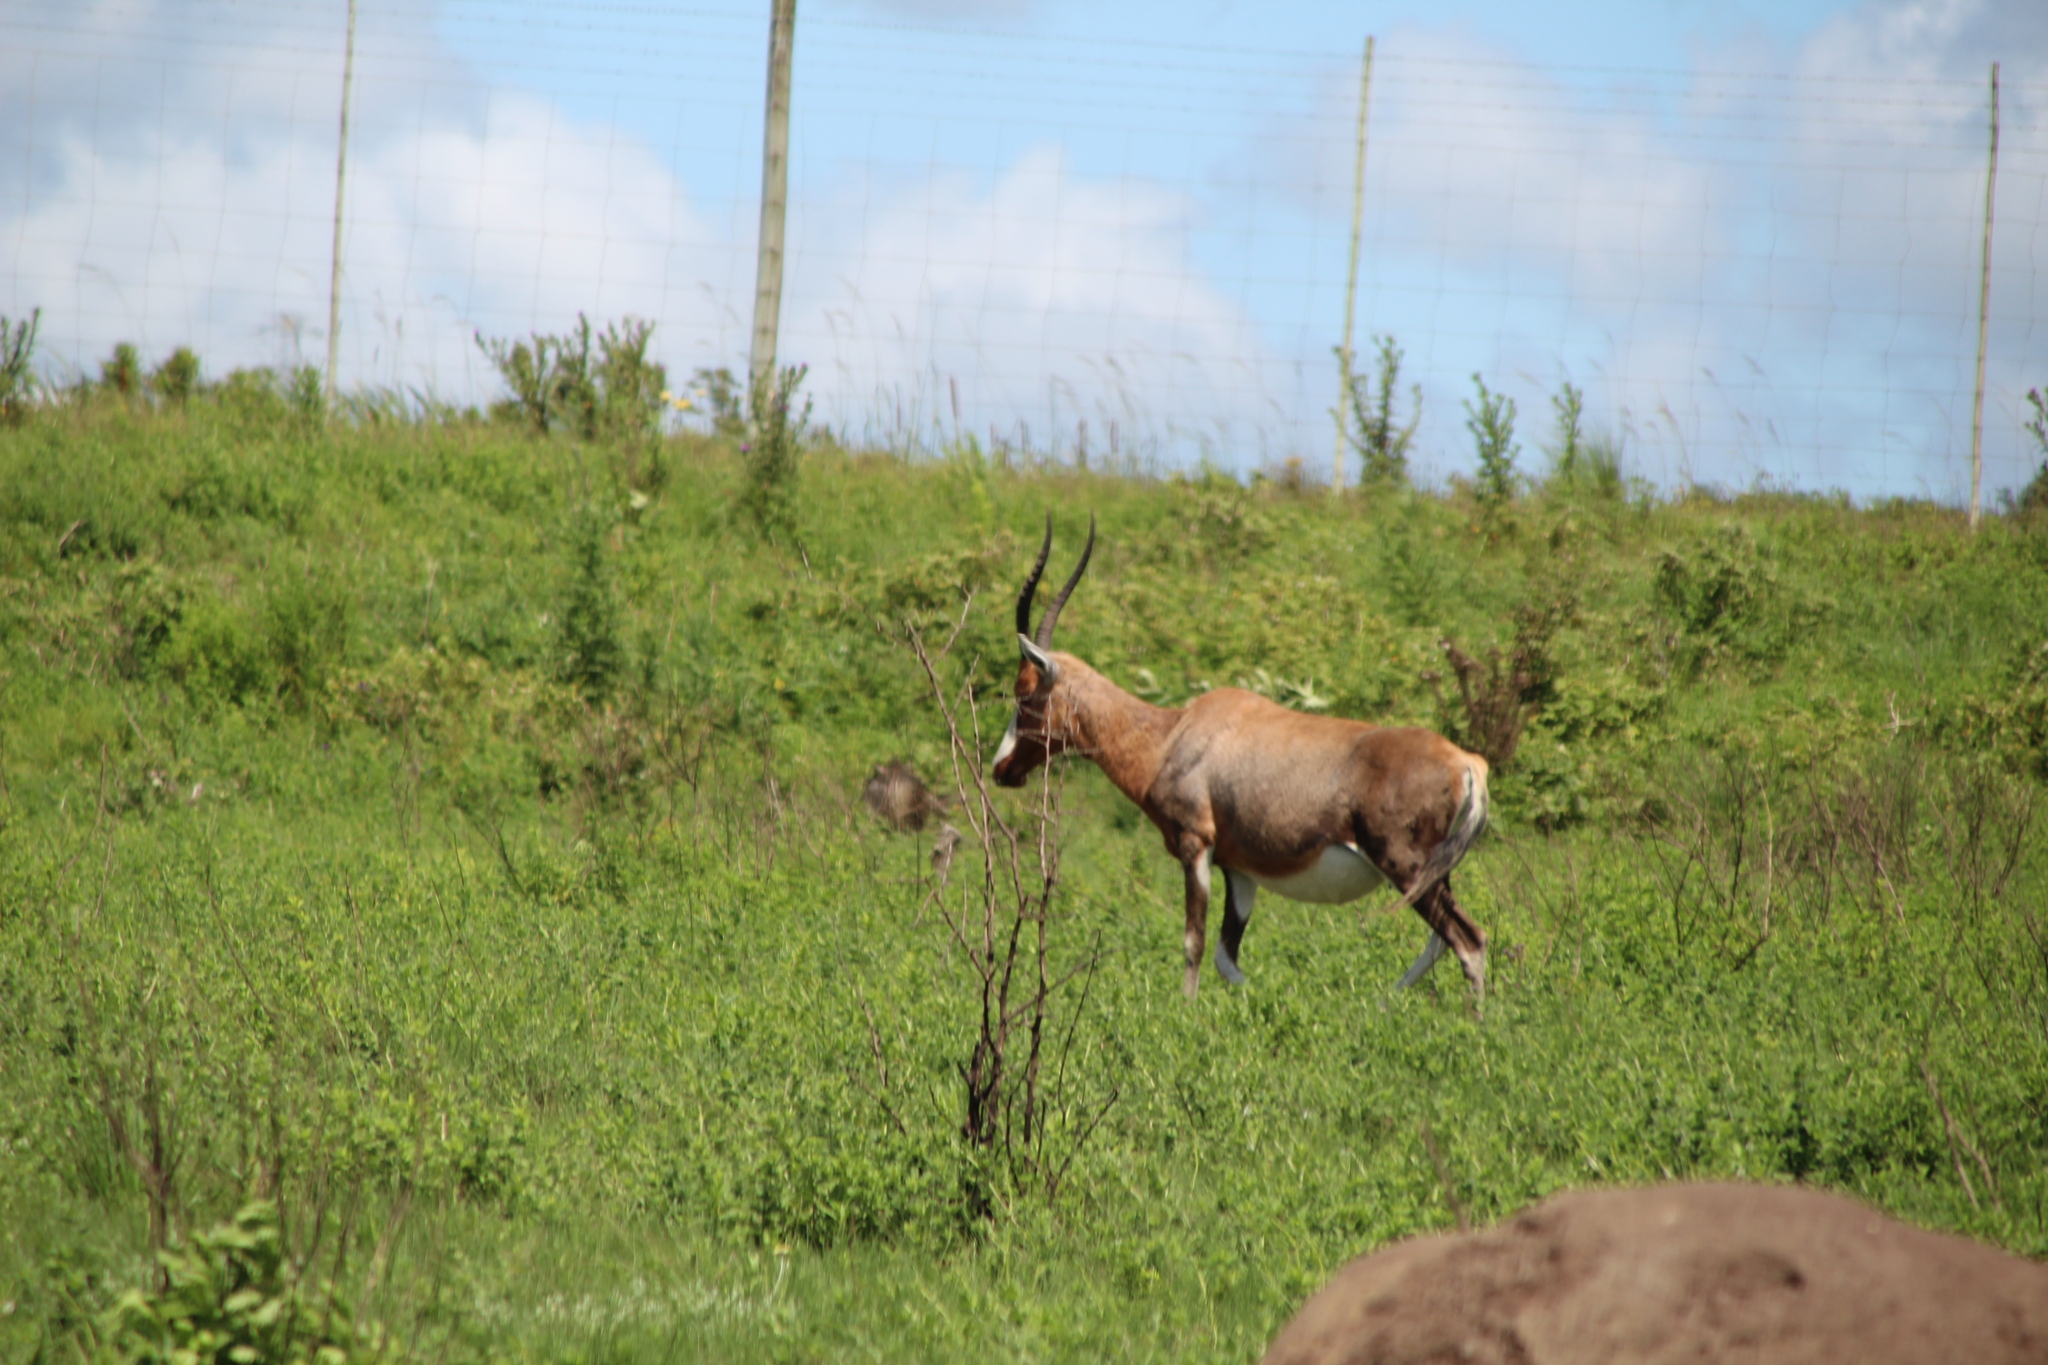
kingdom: Animalia
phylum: Chordata
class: Mammalia
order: Artiodactyla
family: Bovidae
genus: Damaliscus
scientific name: Damaliscus pygargus
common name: Bontebok
